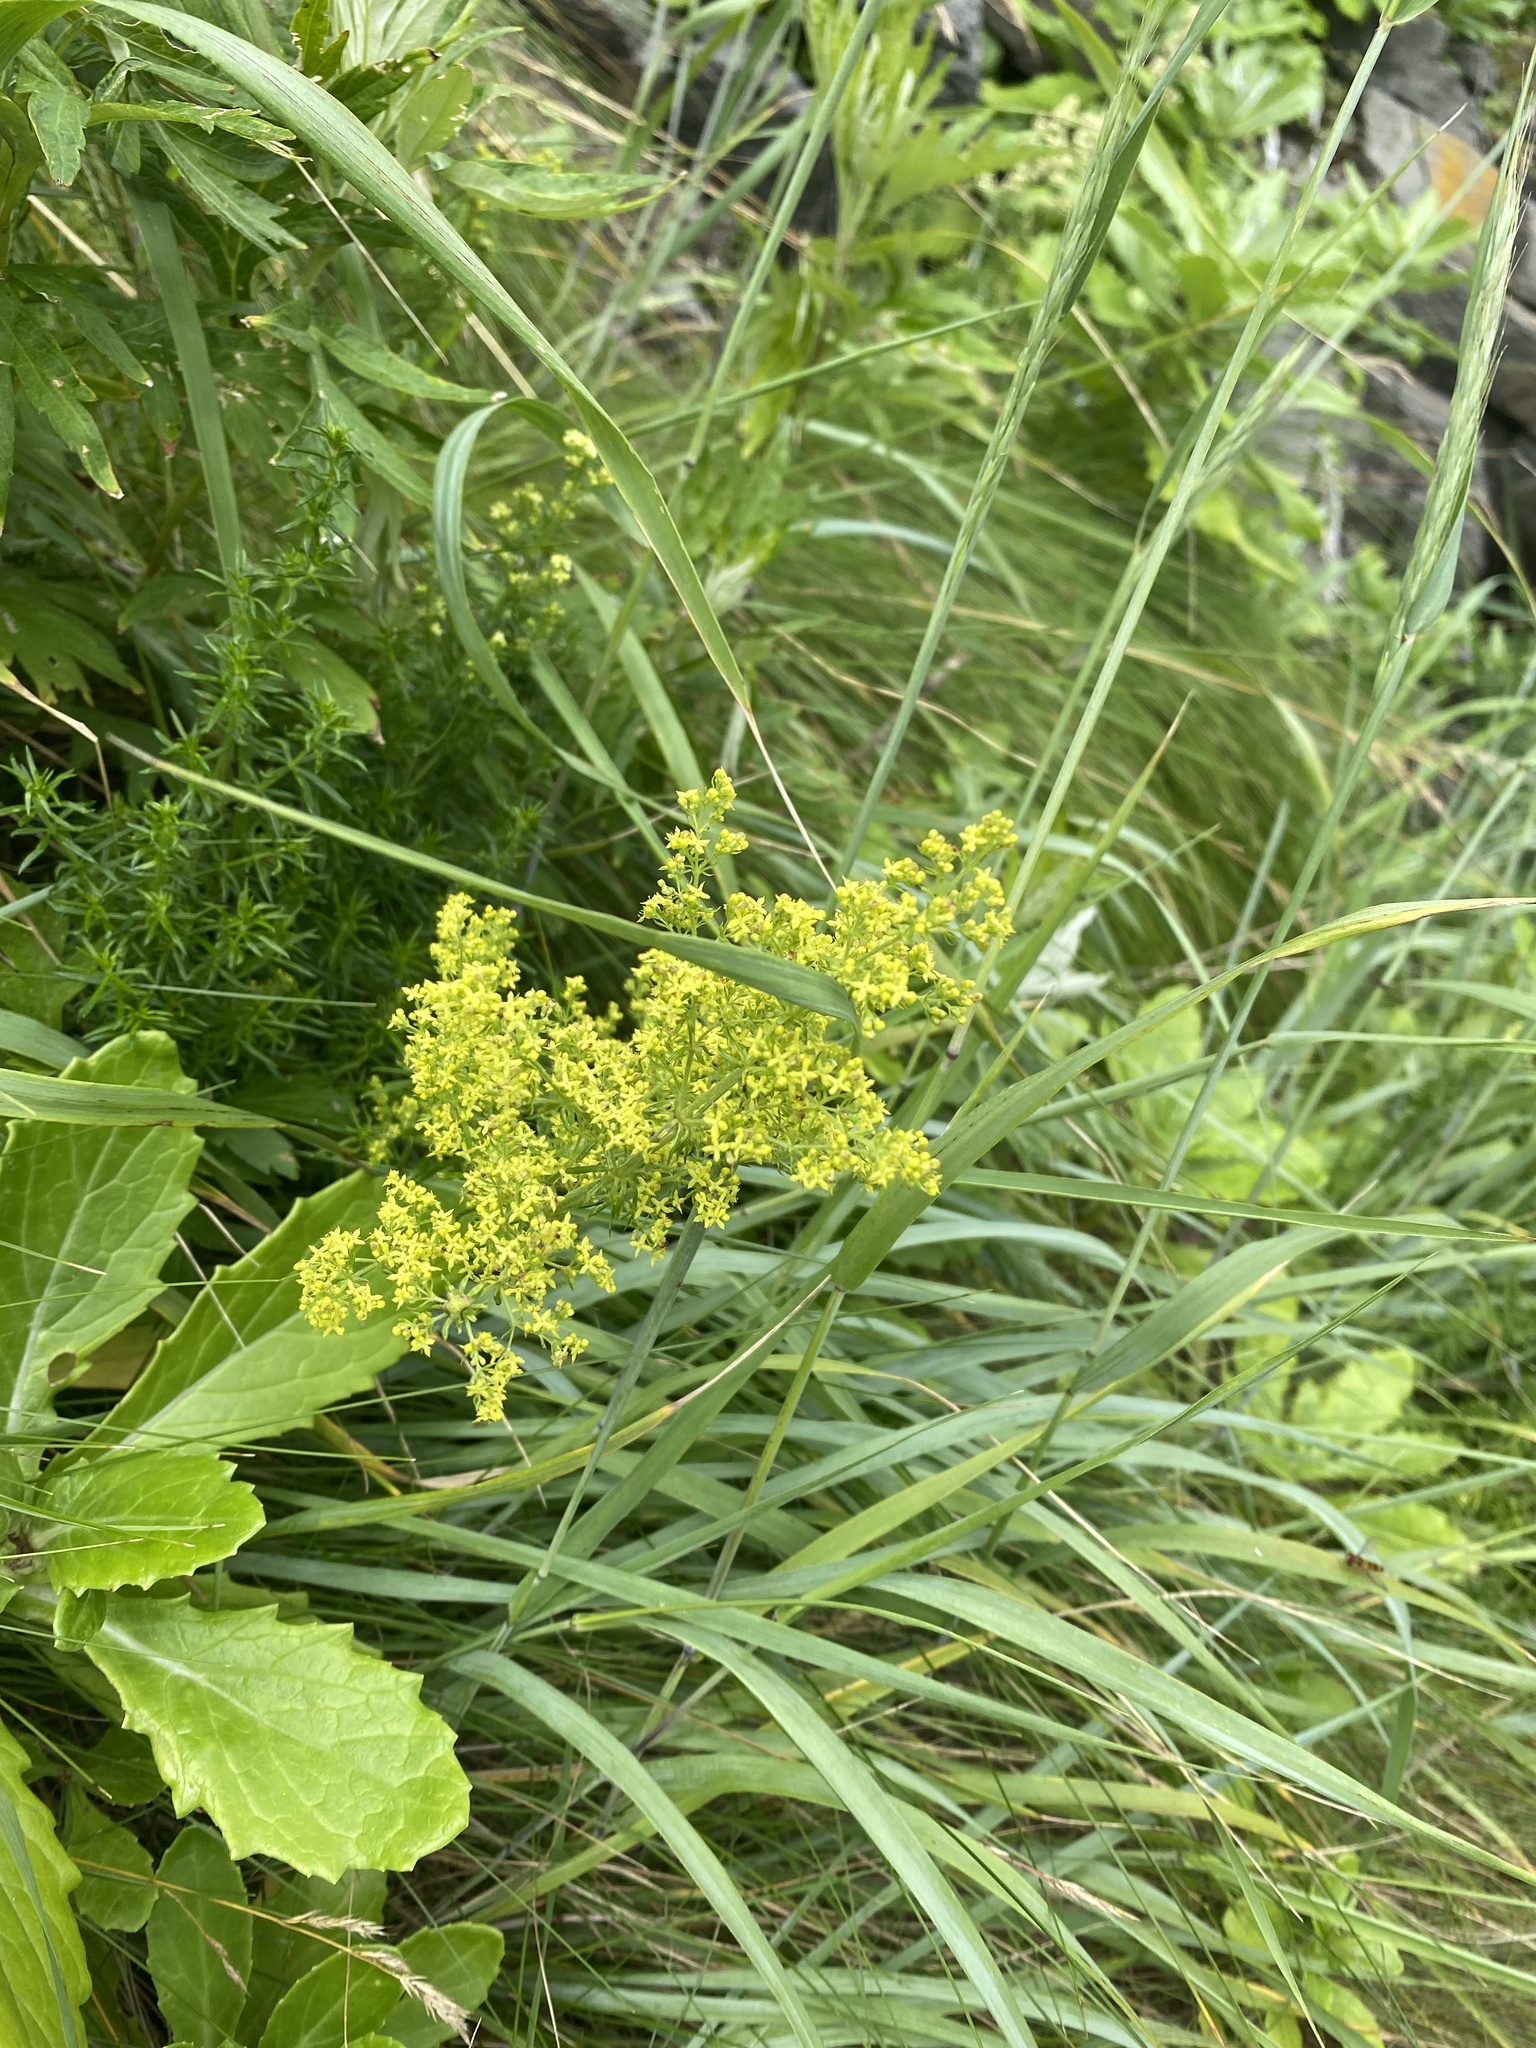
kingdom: Plantae
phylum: Tracheophyta
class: Magnoliopsida
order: Gentianales
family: Rubiaceae
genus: Galium
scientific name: Galium verum
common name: Lady's bedstraw
